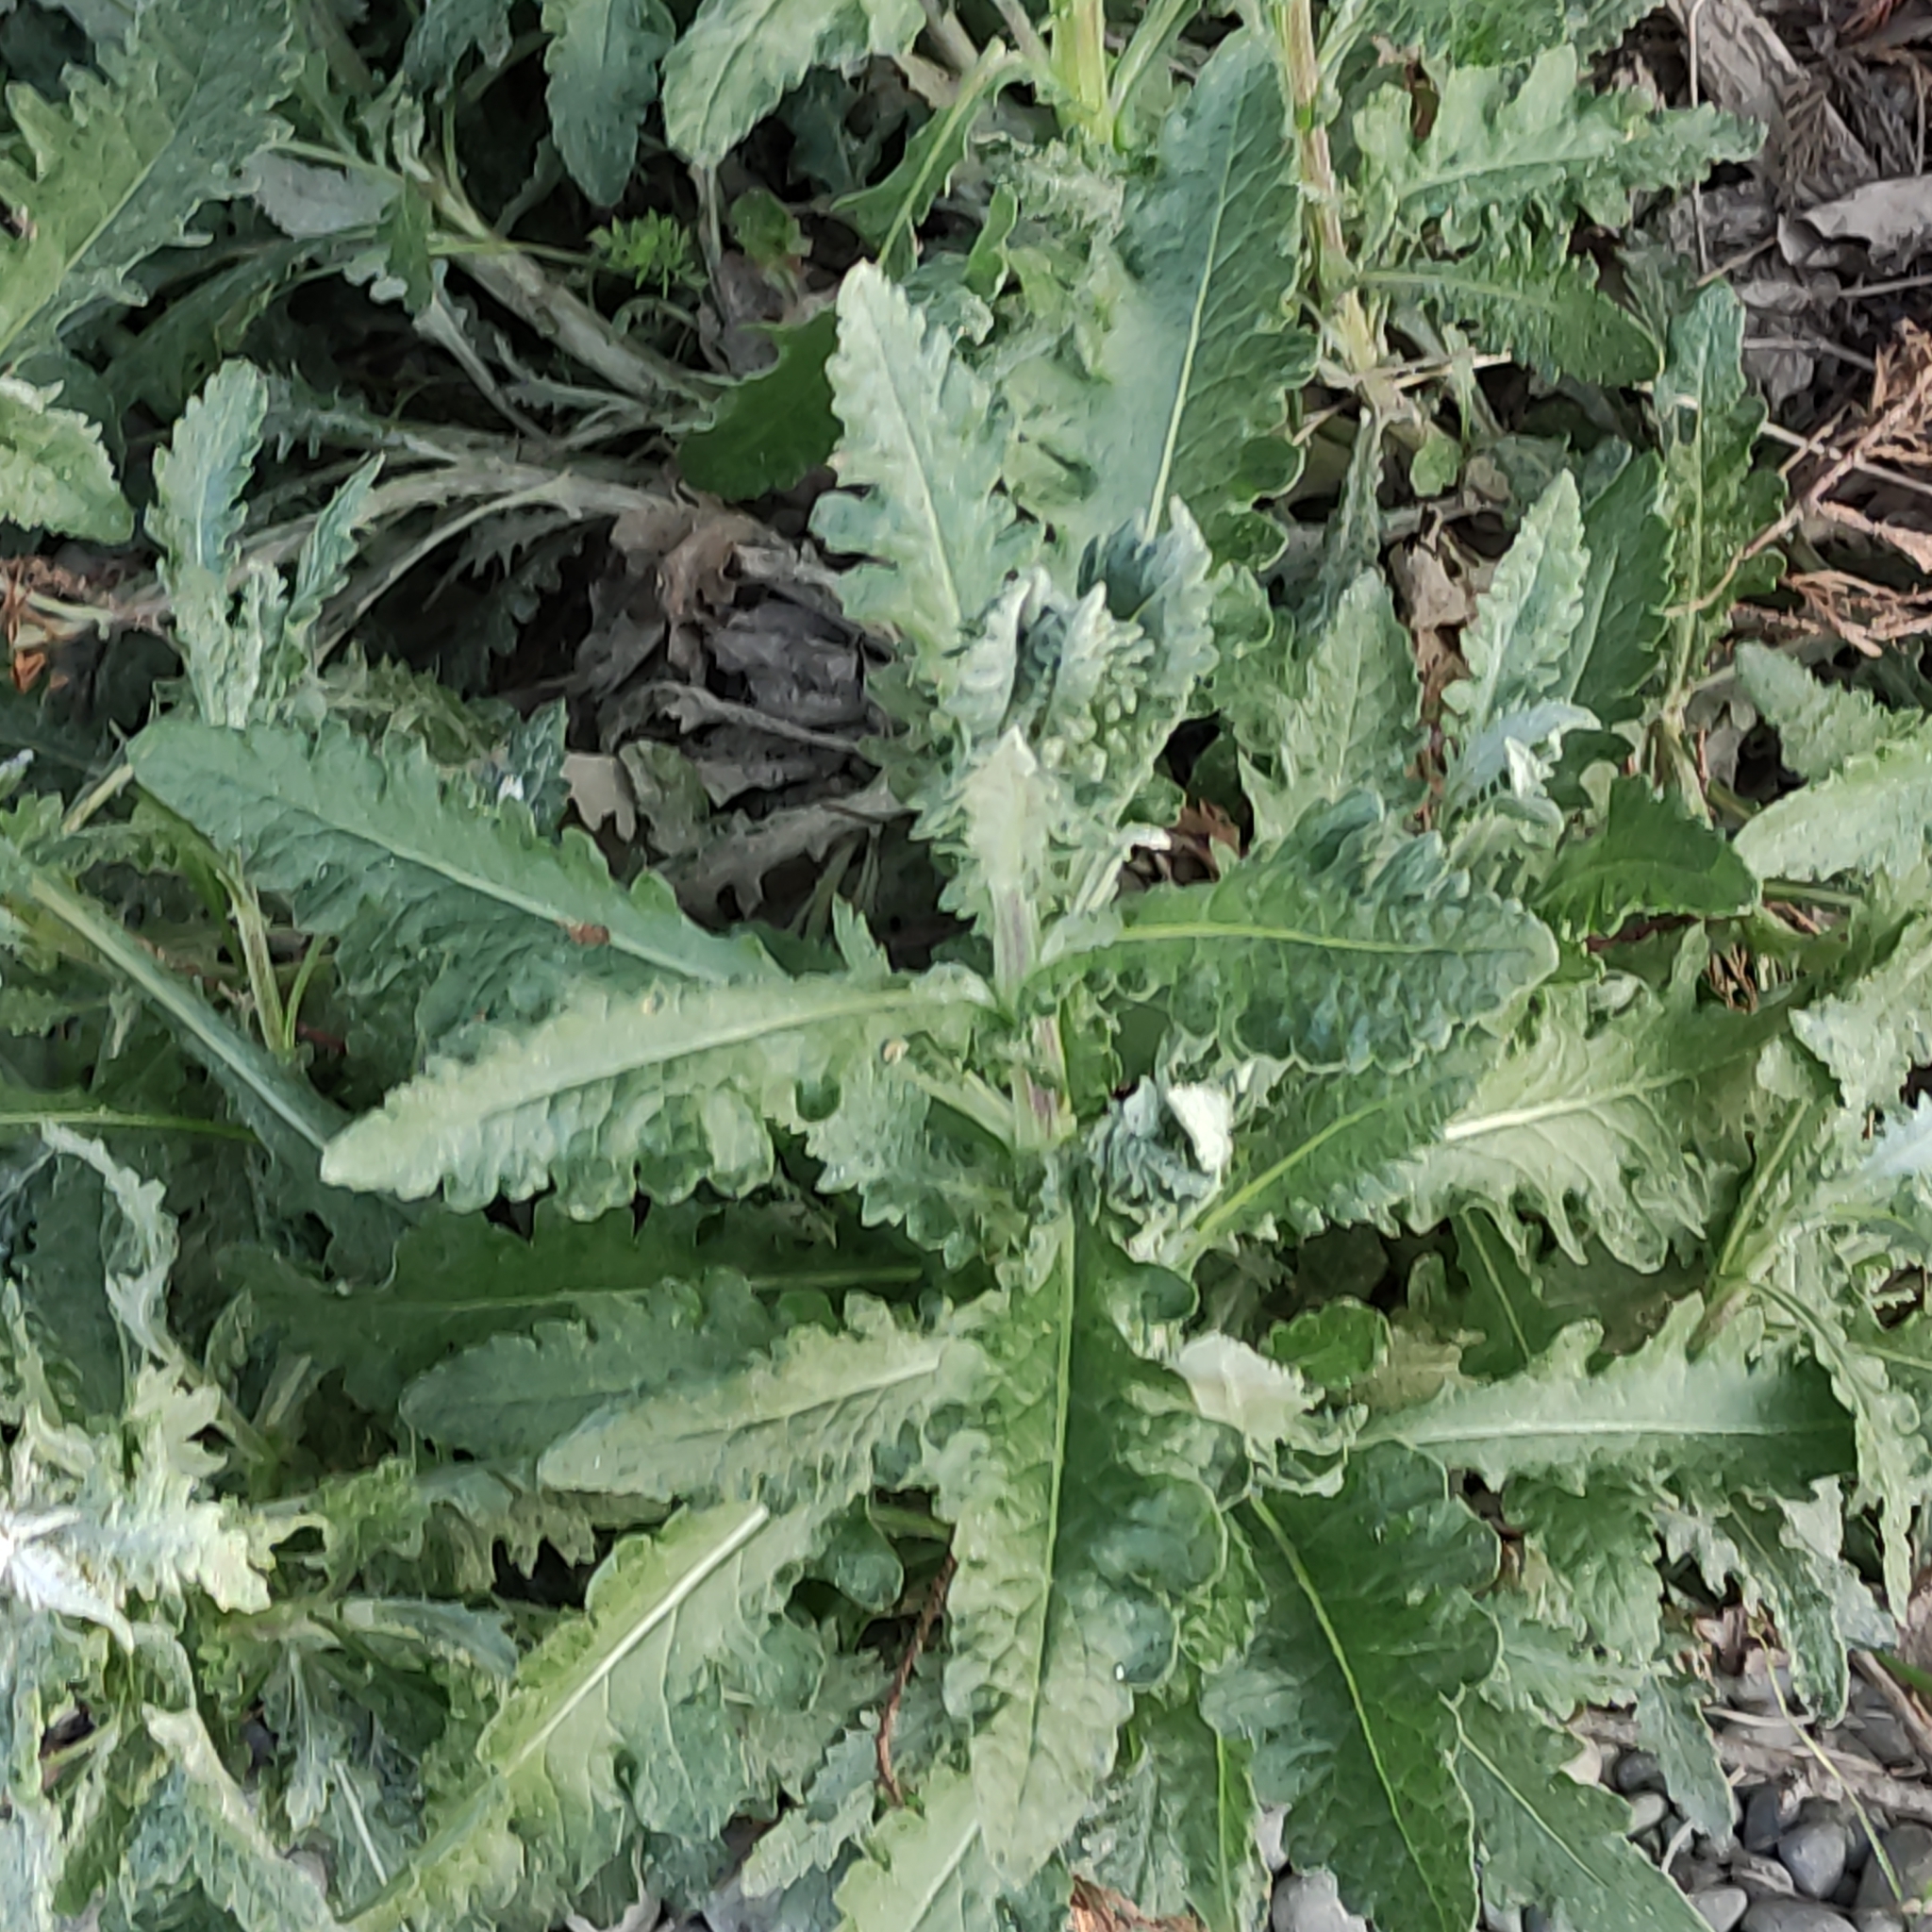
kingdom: Plantae
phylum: Tracheophyta
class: Magnoliopsida
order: Asterales
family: Asteraceae
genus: Senecio
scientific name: Senecio glomeratus
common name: Cutleaf burnweed
